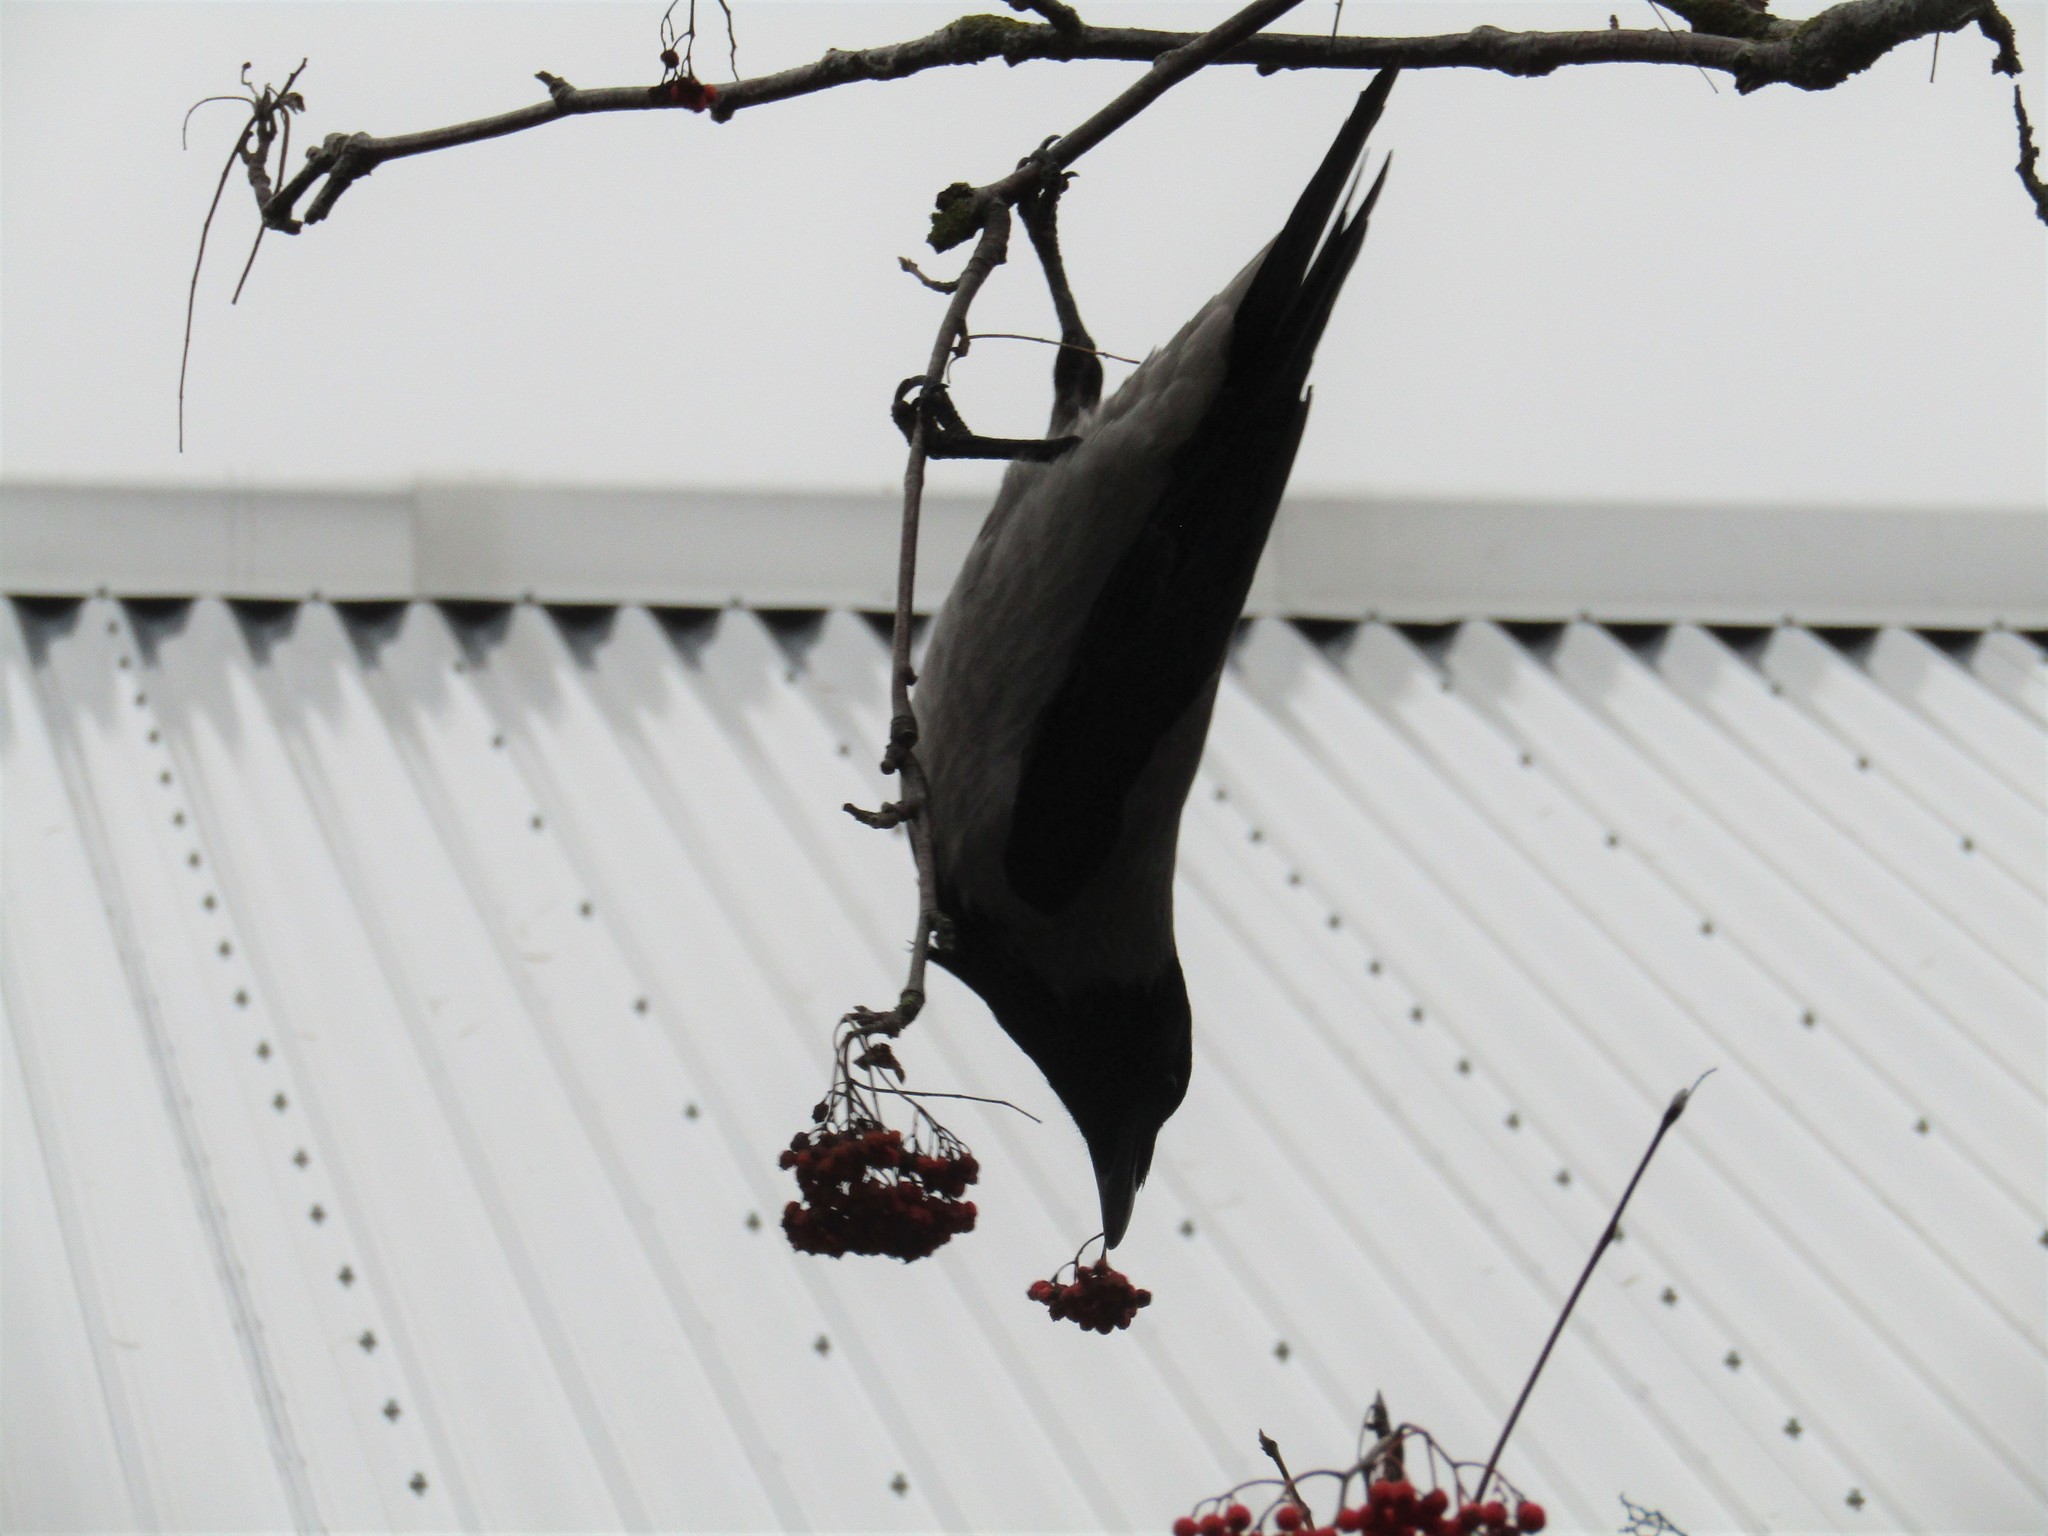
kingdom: Animalia
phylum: Chordata
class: Aves
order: Passeriformes
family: Corvidae
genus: Corvus
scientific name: Corvus cornix
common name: Hooded crow
